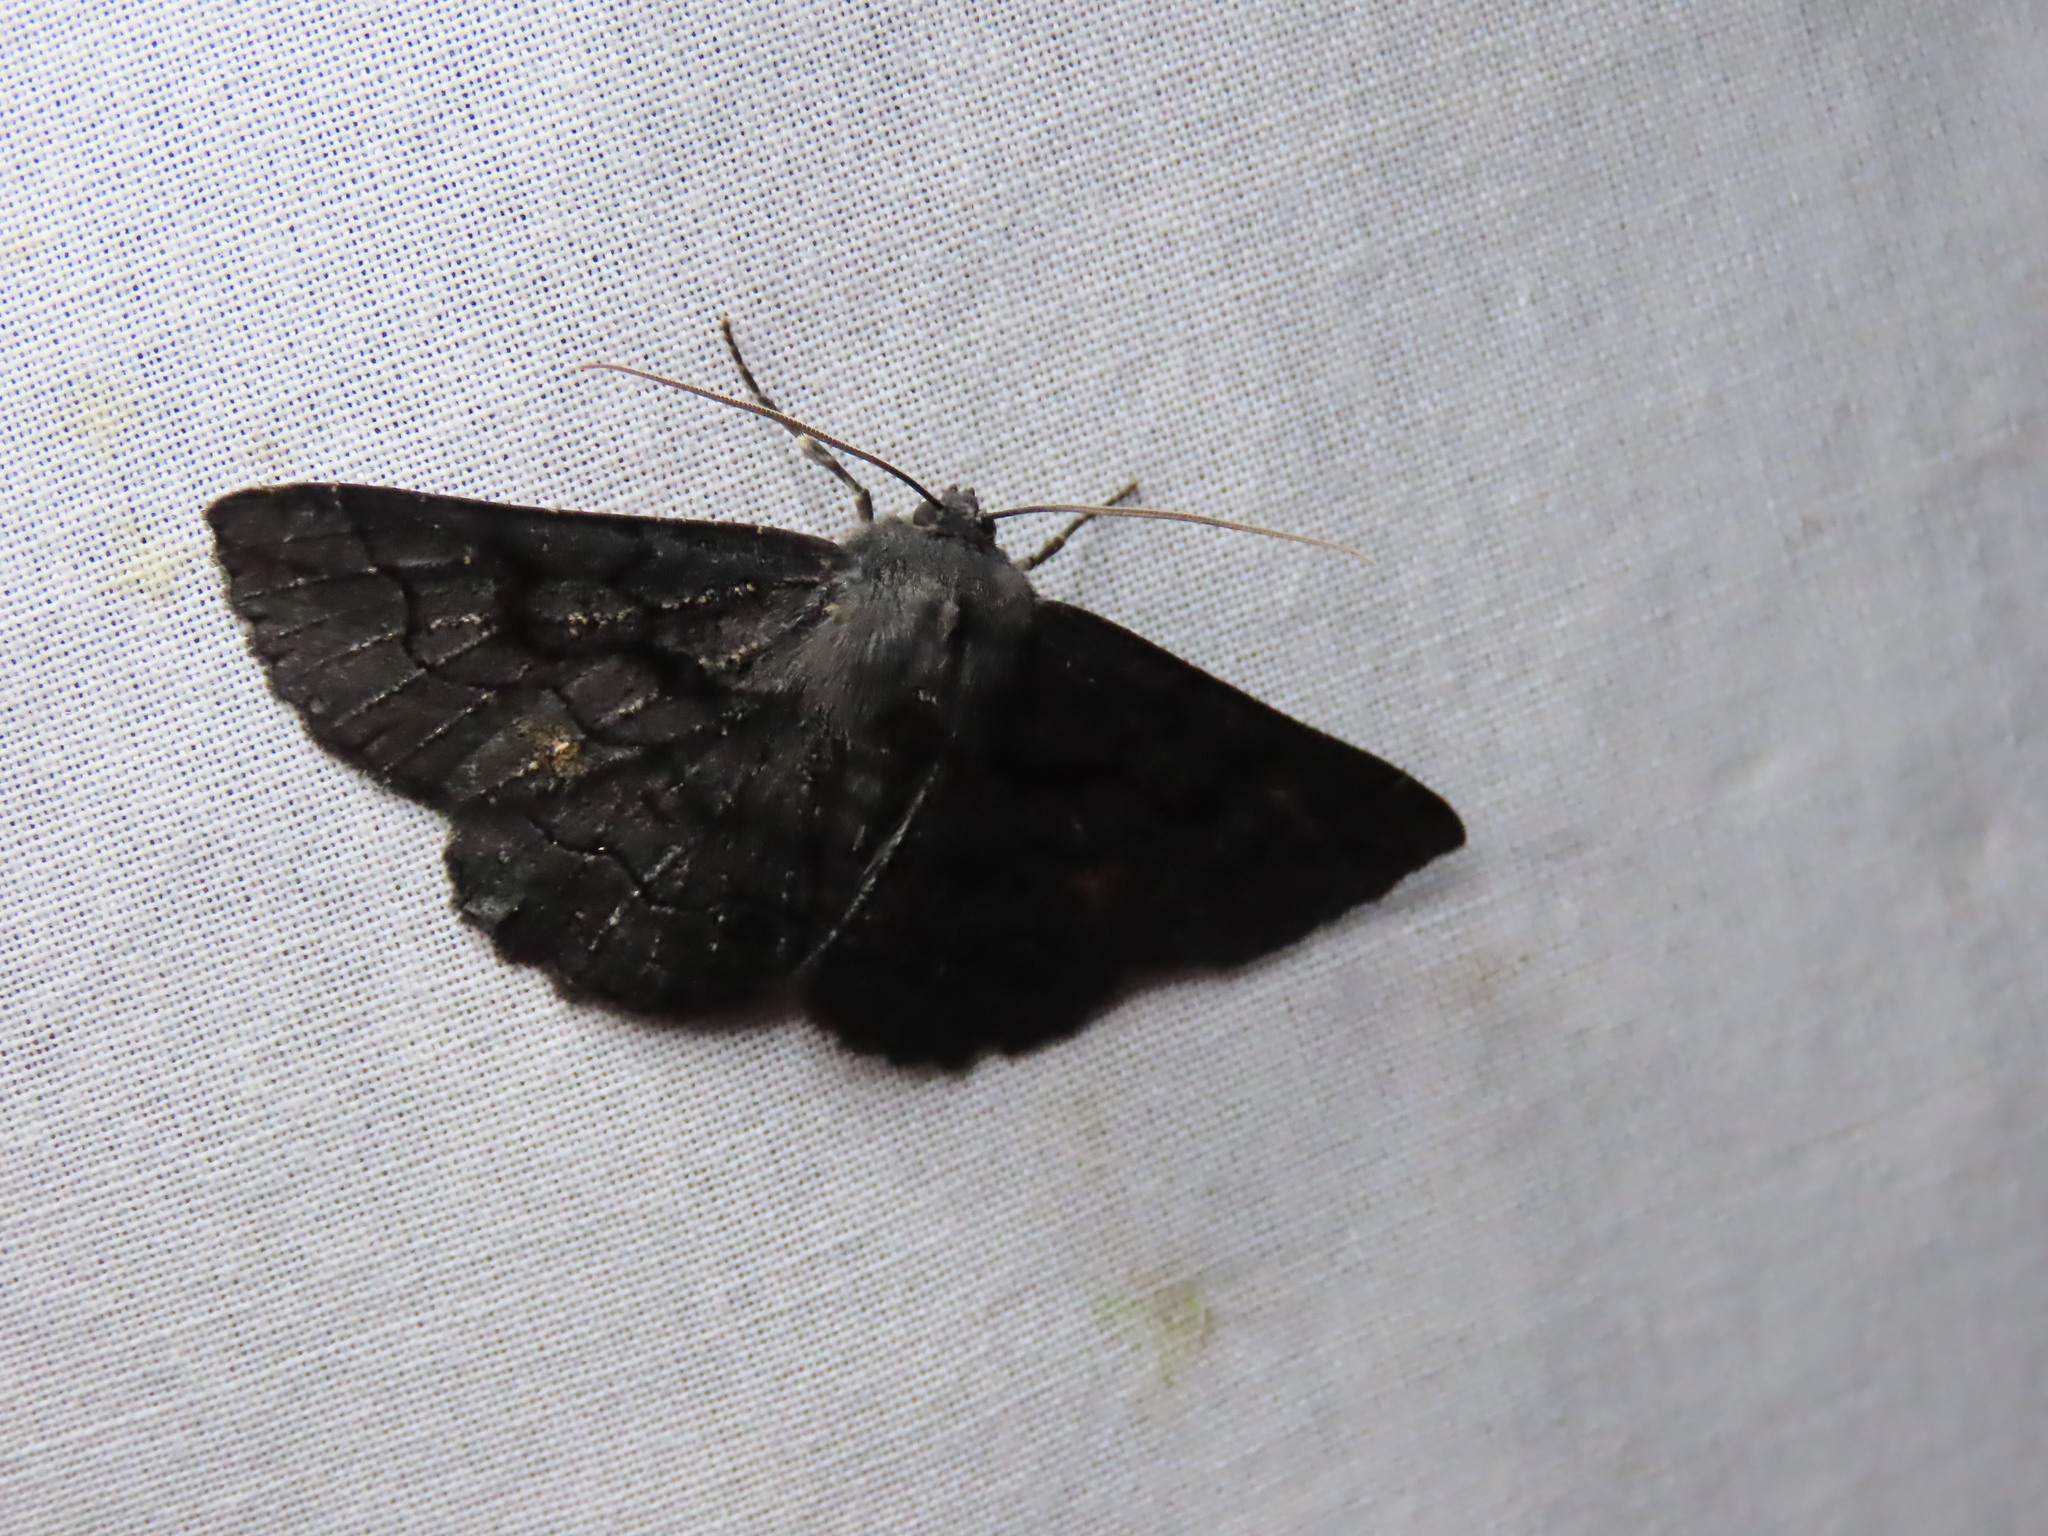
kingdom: Animalia
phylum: Arthropoda
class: Insecta
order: Lepidoptera
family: Geometridae
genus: Melanodes
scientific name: Melanodes anthracitaria
